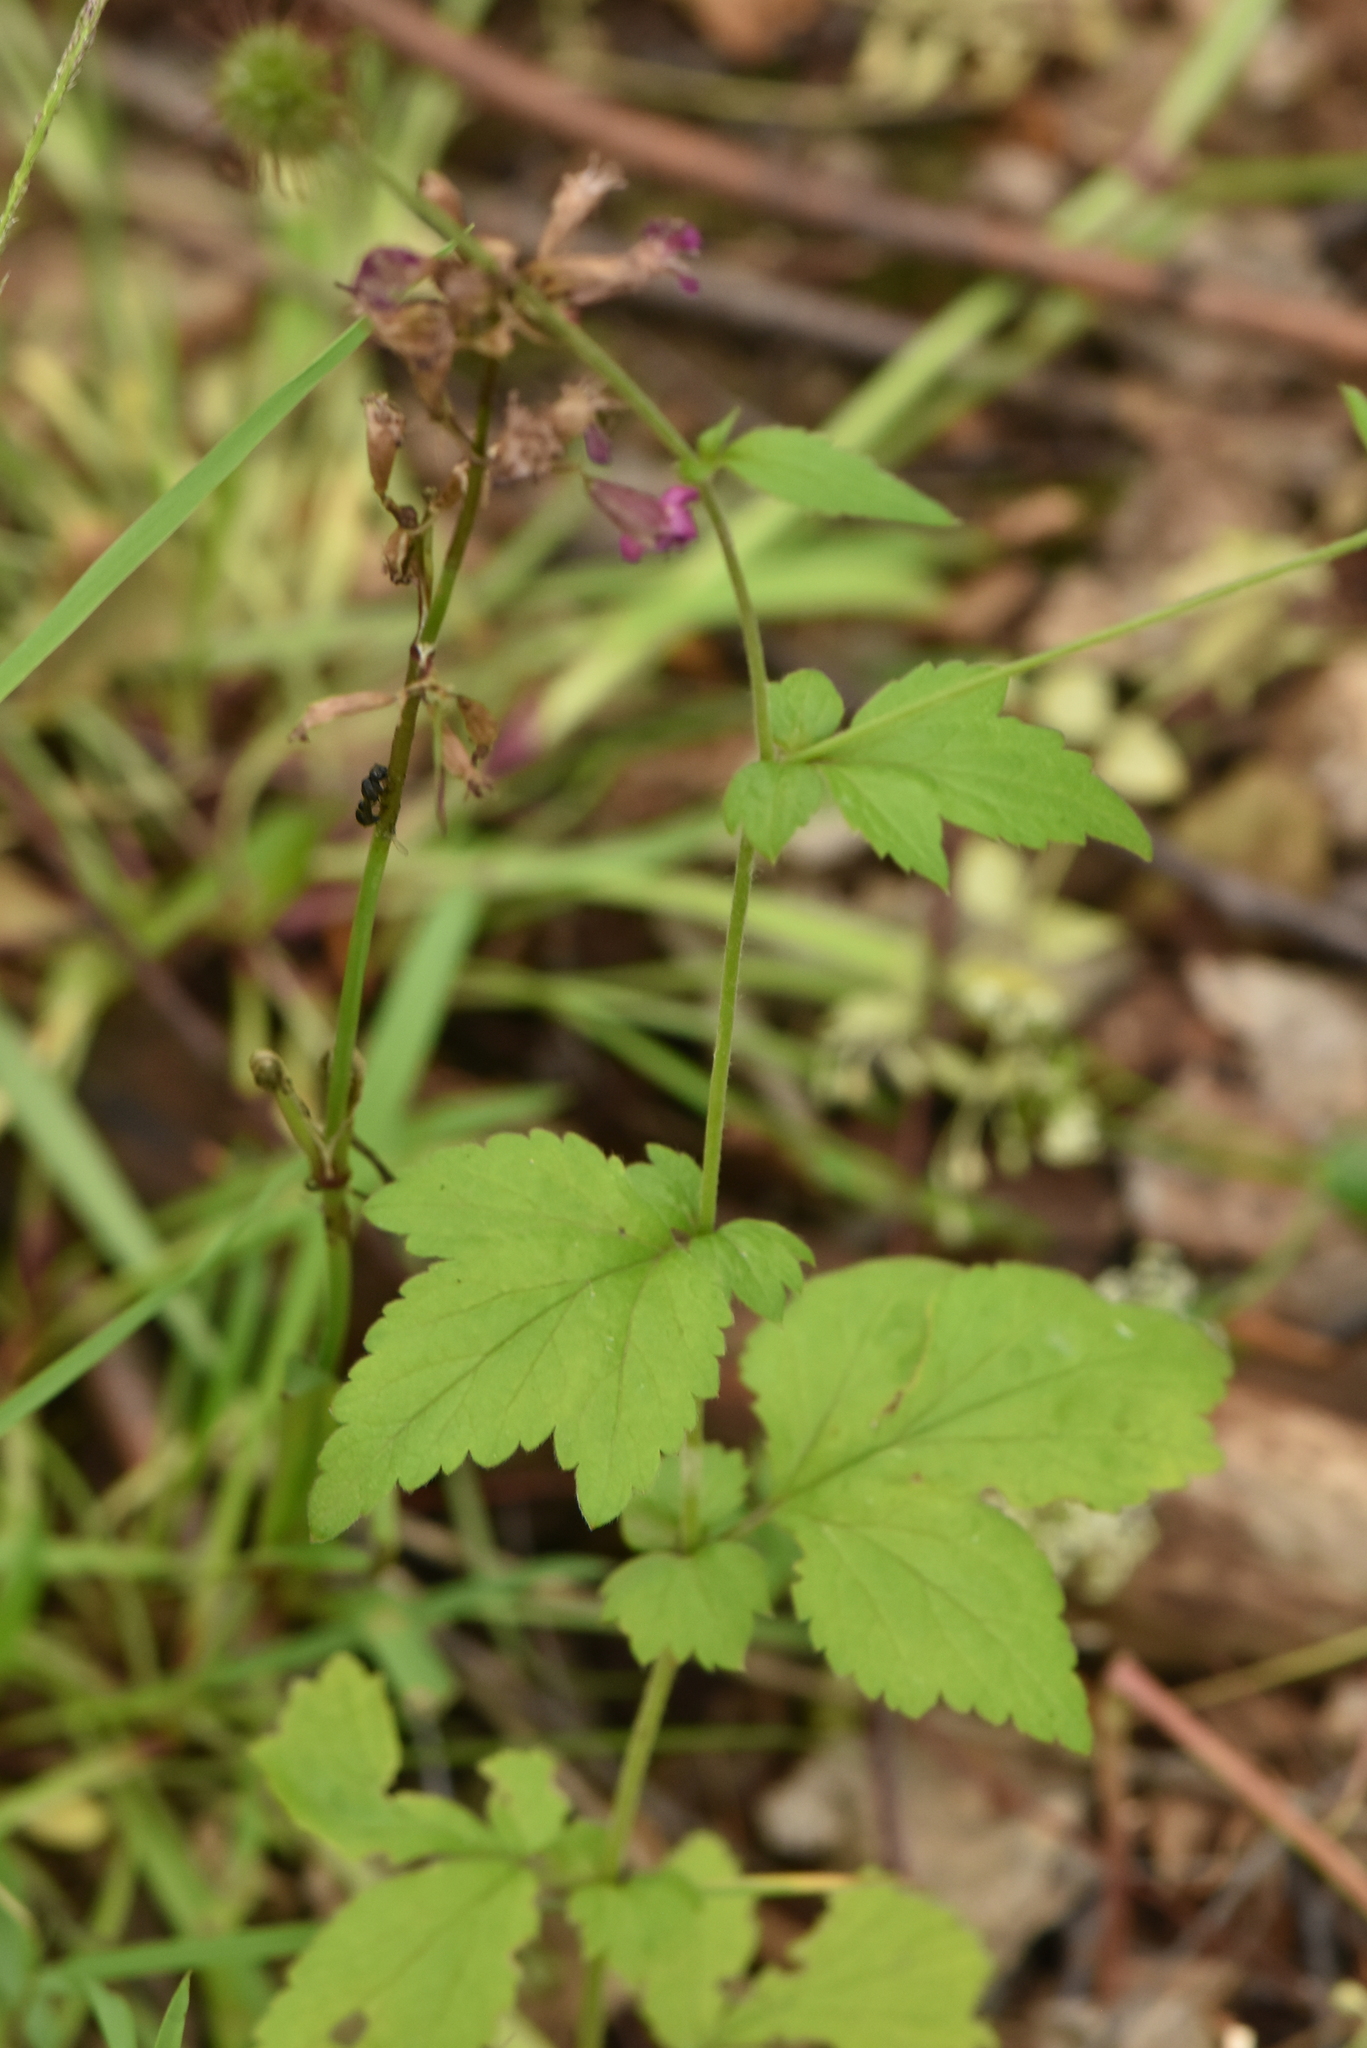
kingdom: Plantae
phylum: Tracheophyta
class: Magnoliopsida
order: Rosales
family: Rosaceae
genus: Geum
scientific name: Geum urbanum
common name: Wood avens
